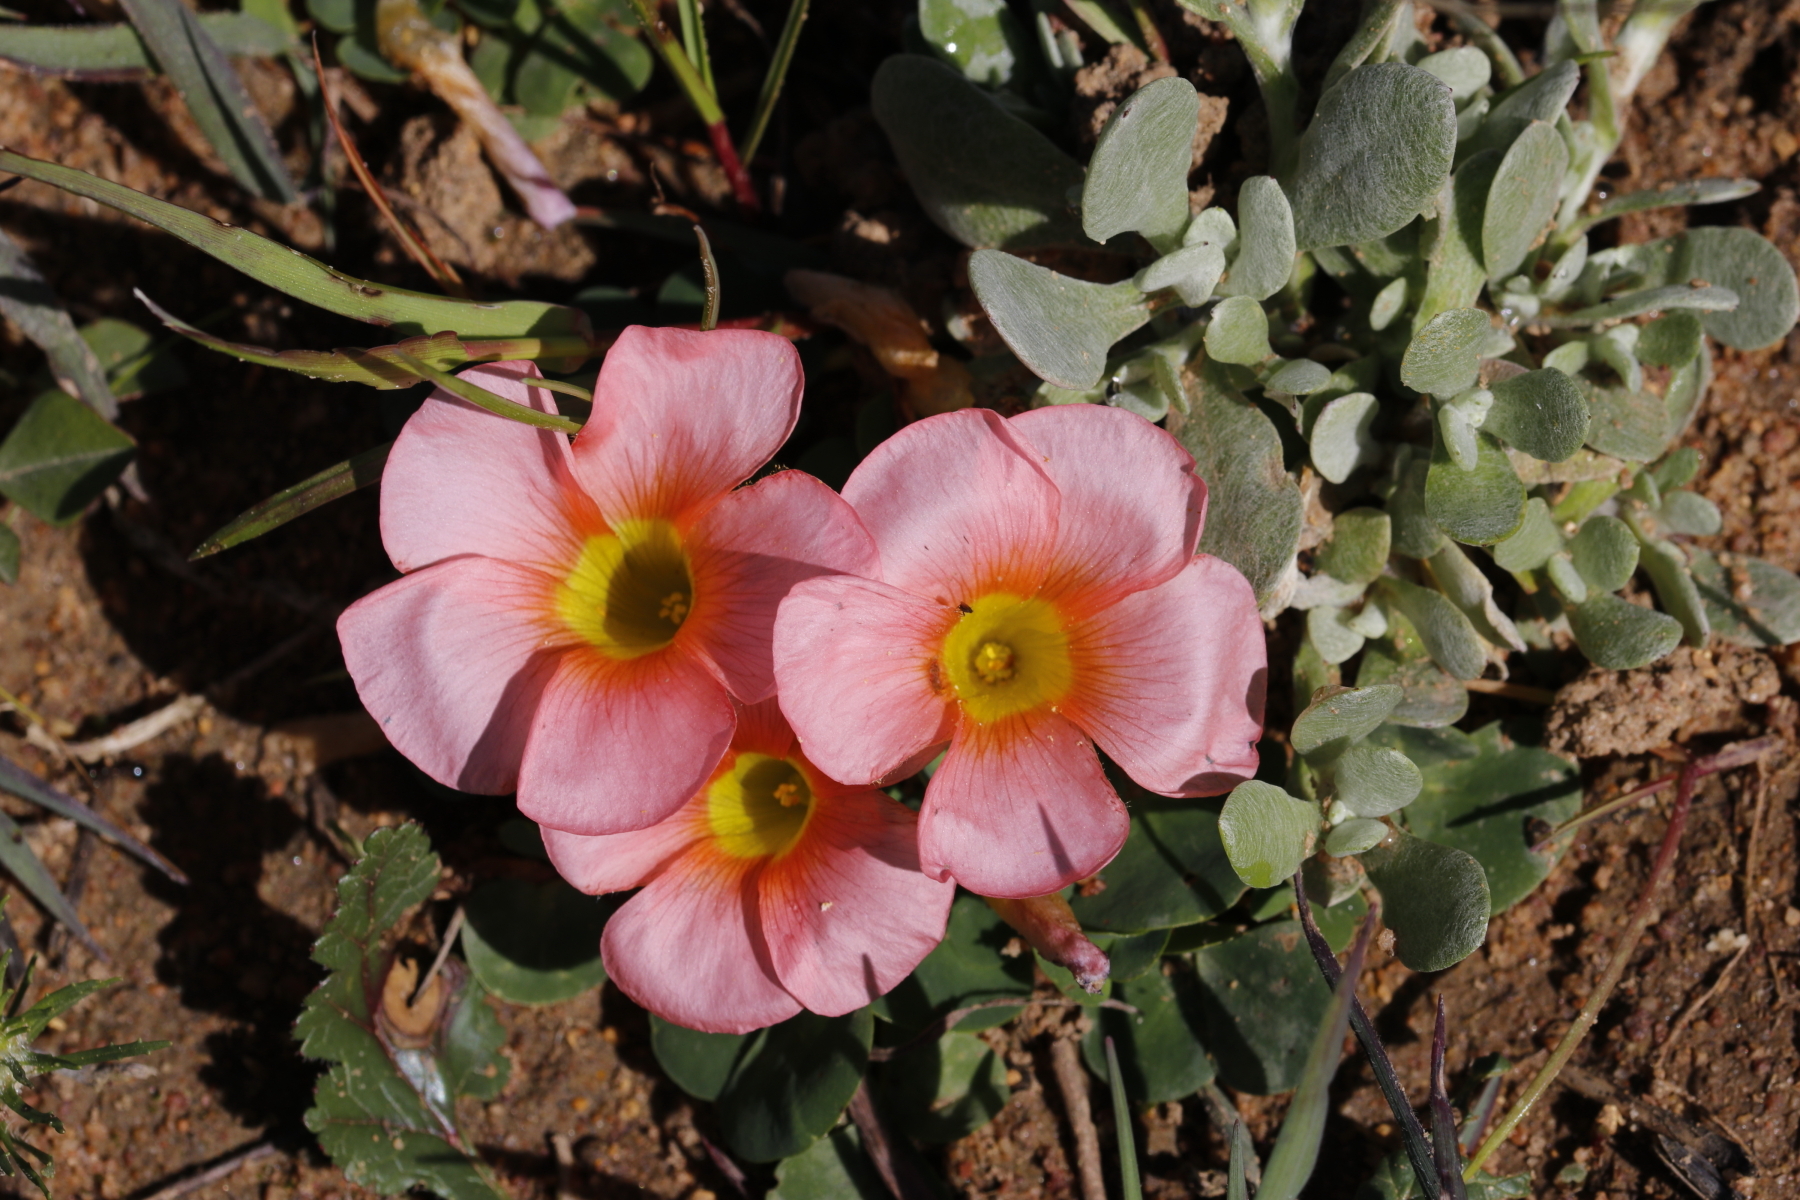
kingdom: Plantae
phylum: Tracheophyta
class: Magnoliopsida
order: Oxalidales
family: Oxalidaceae
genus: Oxalis
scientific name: Oxalis obtusa
